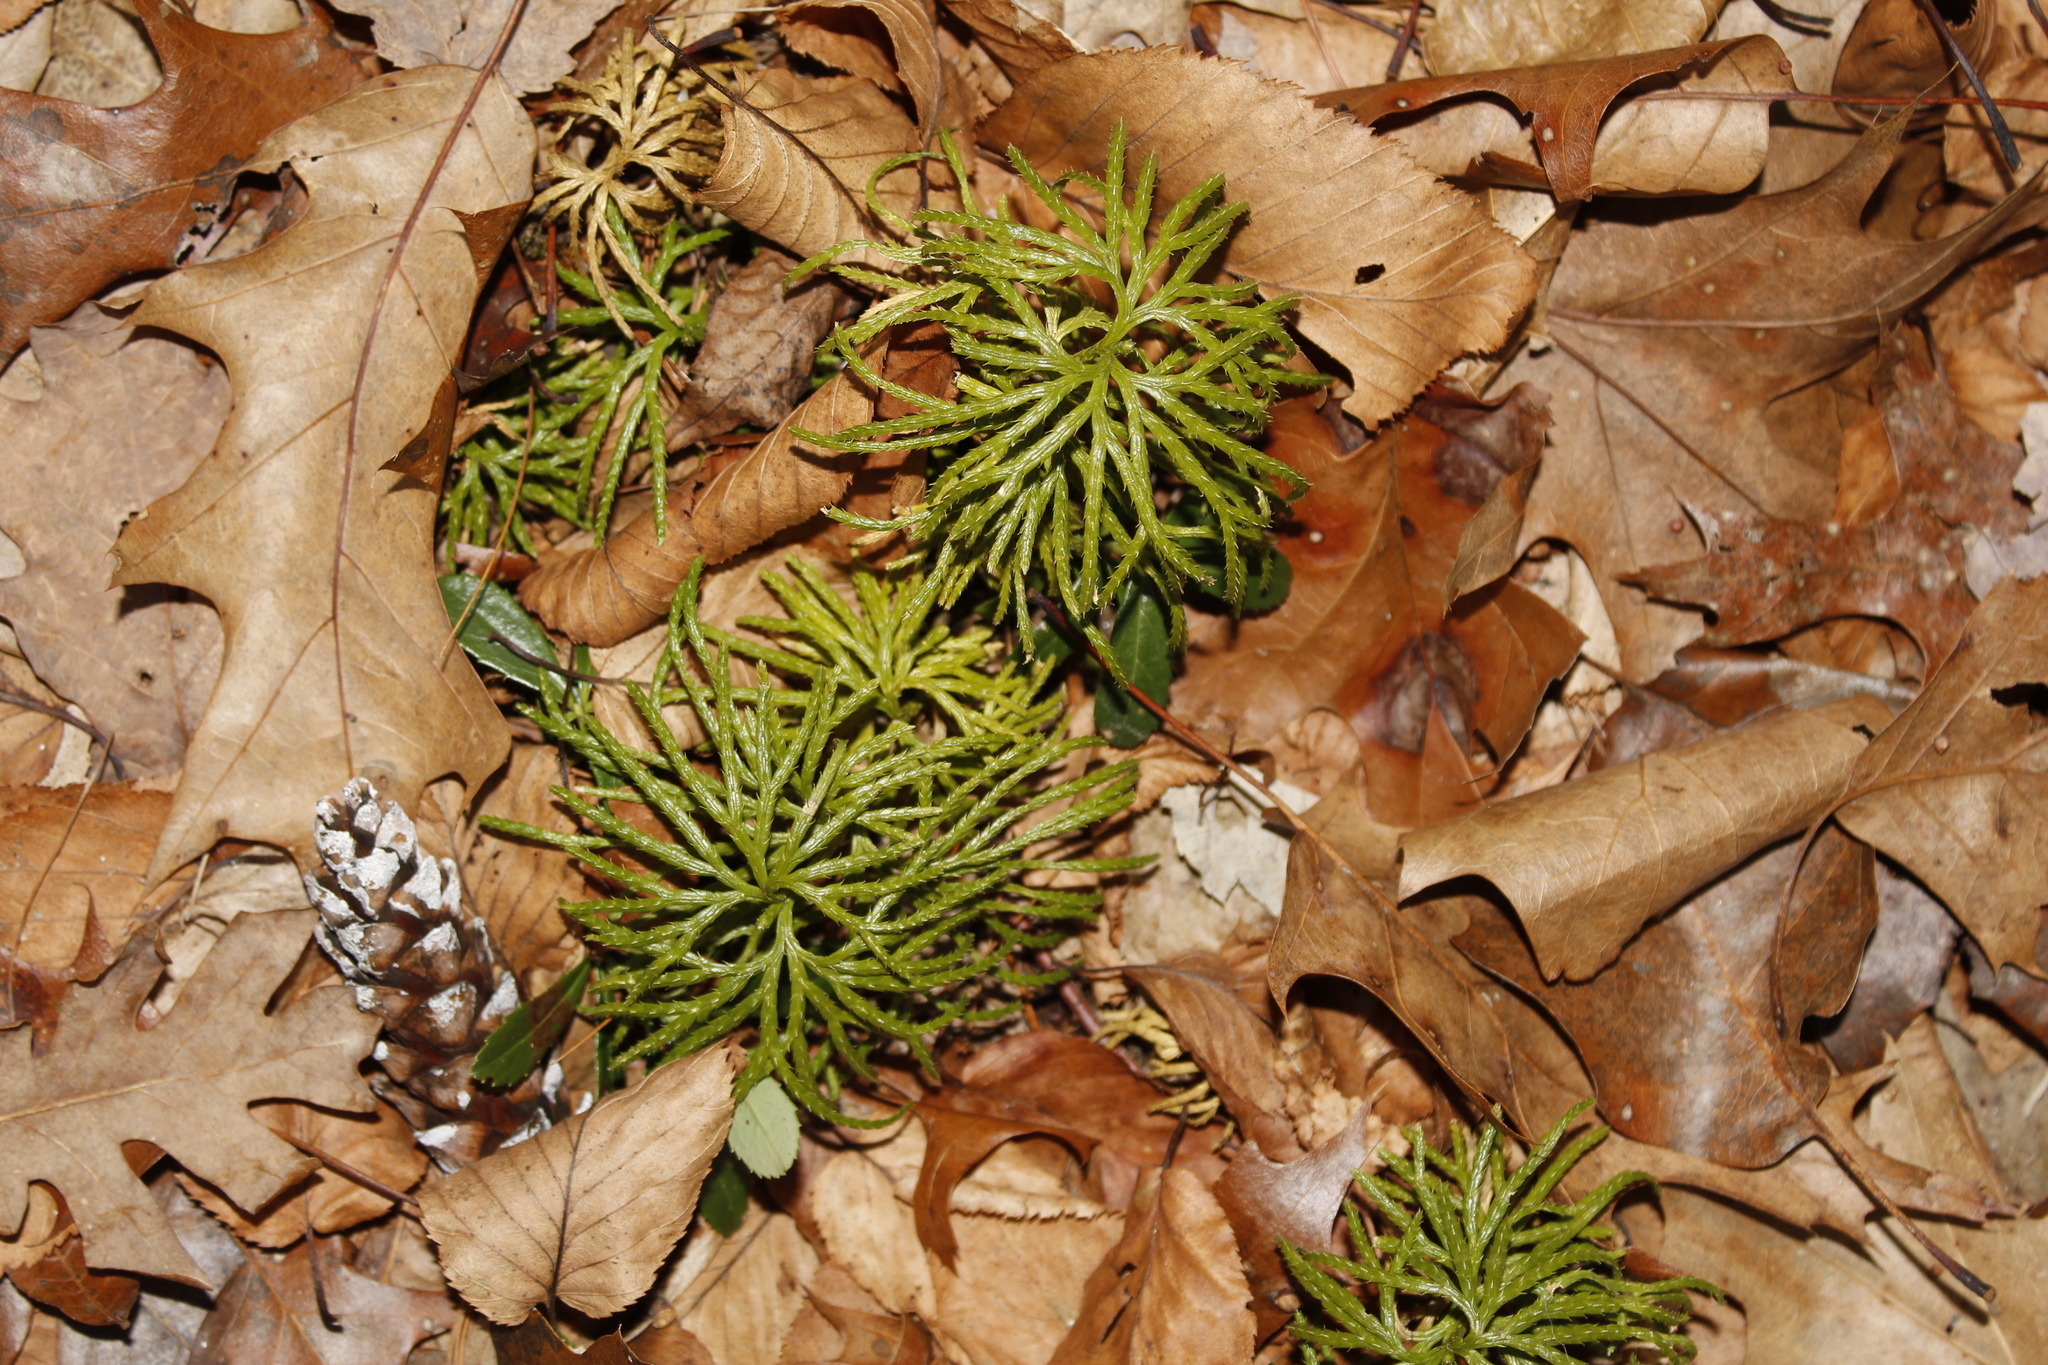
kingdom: Plantae
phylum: Tracheophyta
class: Lycopodiopsida
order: Lycopodiales
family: Lycopodiaceae
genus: Diphasiastrum
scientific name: Diphasiastrum digitatum
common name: Southern running-pine
